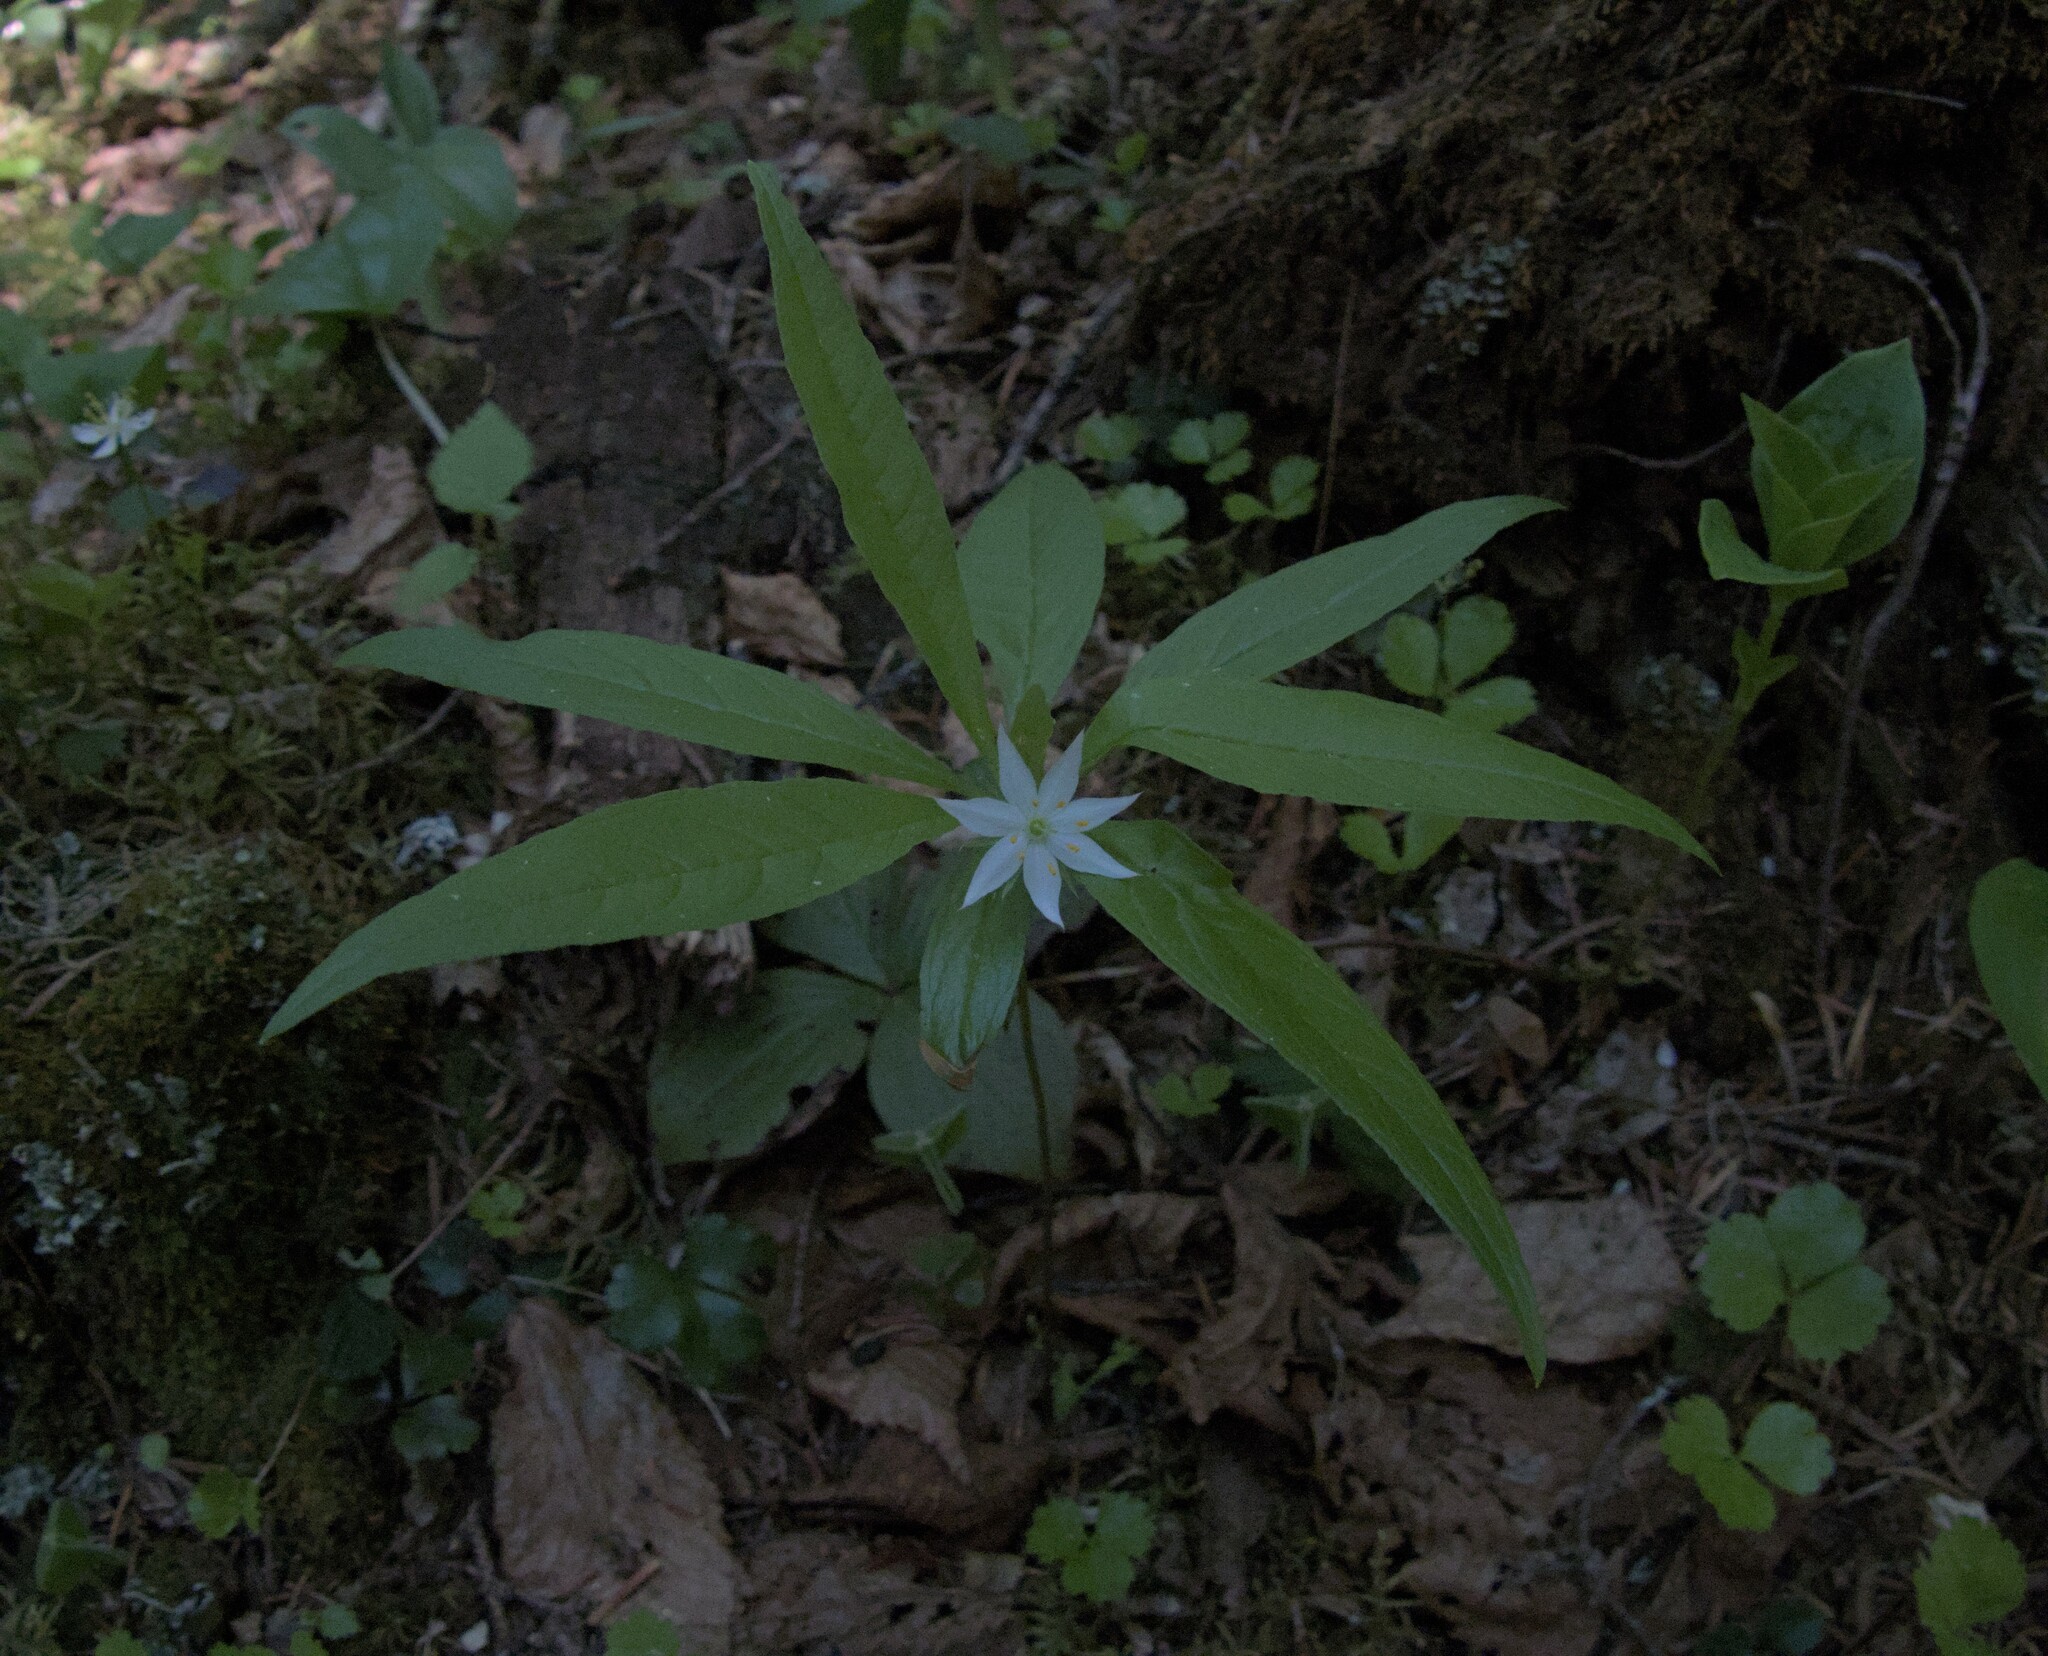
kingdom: Plantae
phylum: Tracheophyta
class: Magnoliopsida
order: Ericales
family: Primulaceae
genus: Lysimachia
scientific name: Lysimachia borealis
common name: American starflower
